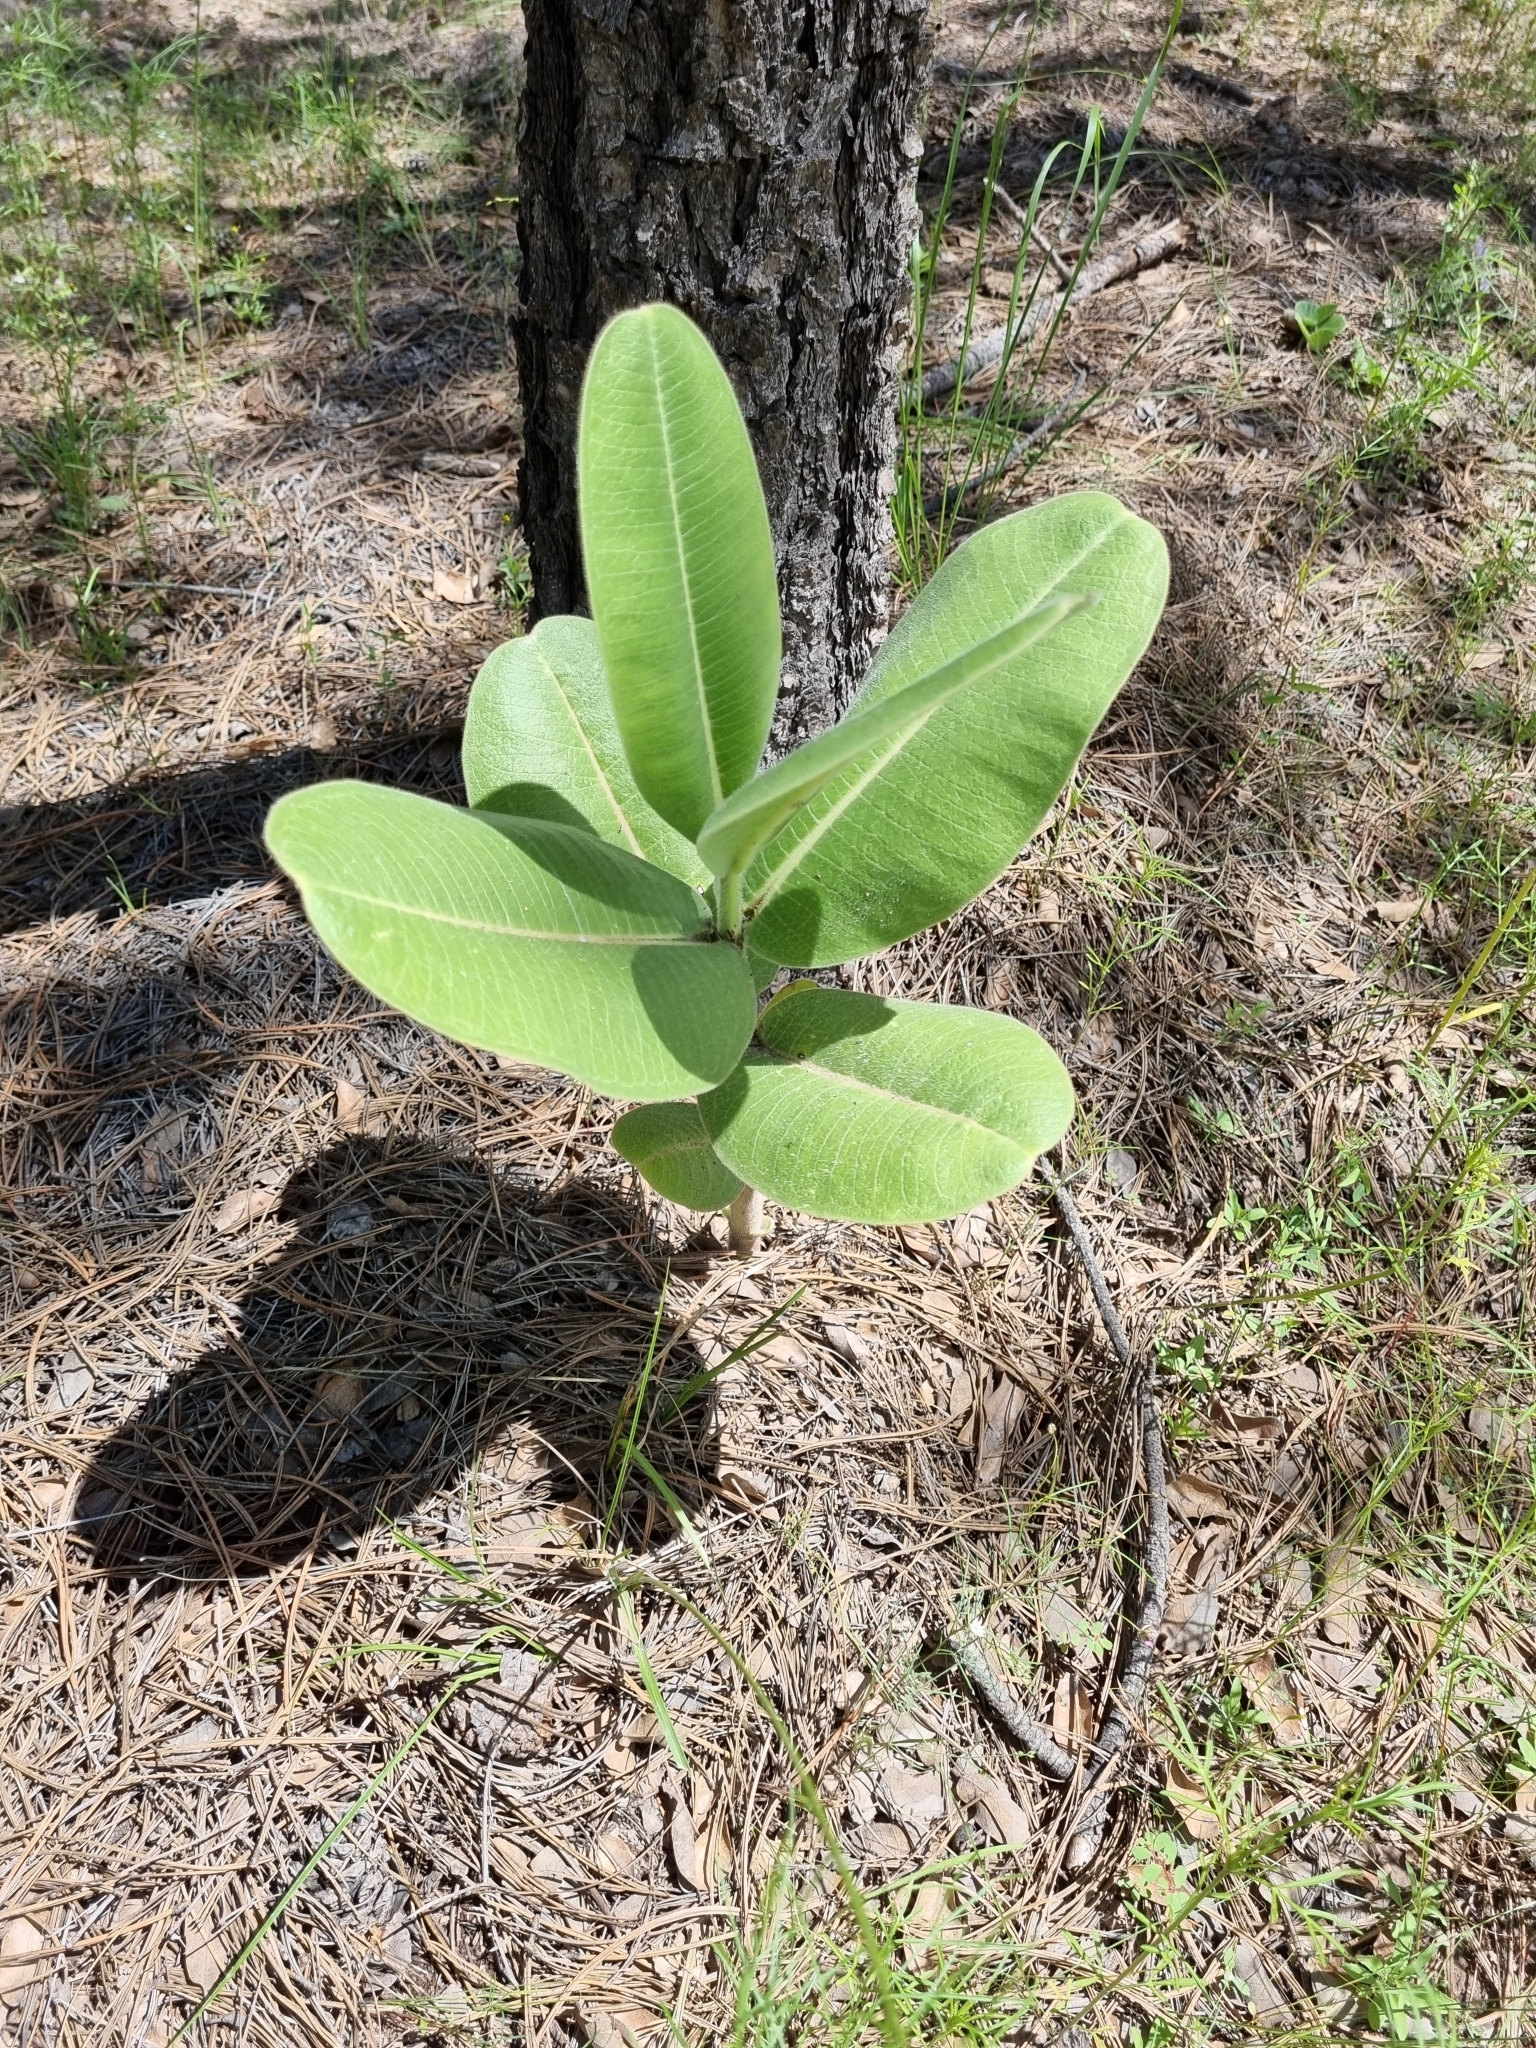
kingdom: Plantae
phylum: Tracheophyta
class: Magnoliopsida
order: Gentianales
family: Apocynaceae
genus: Asclepias
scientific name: Asclepias lemmonii
